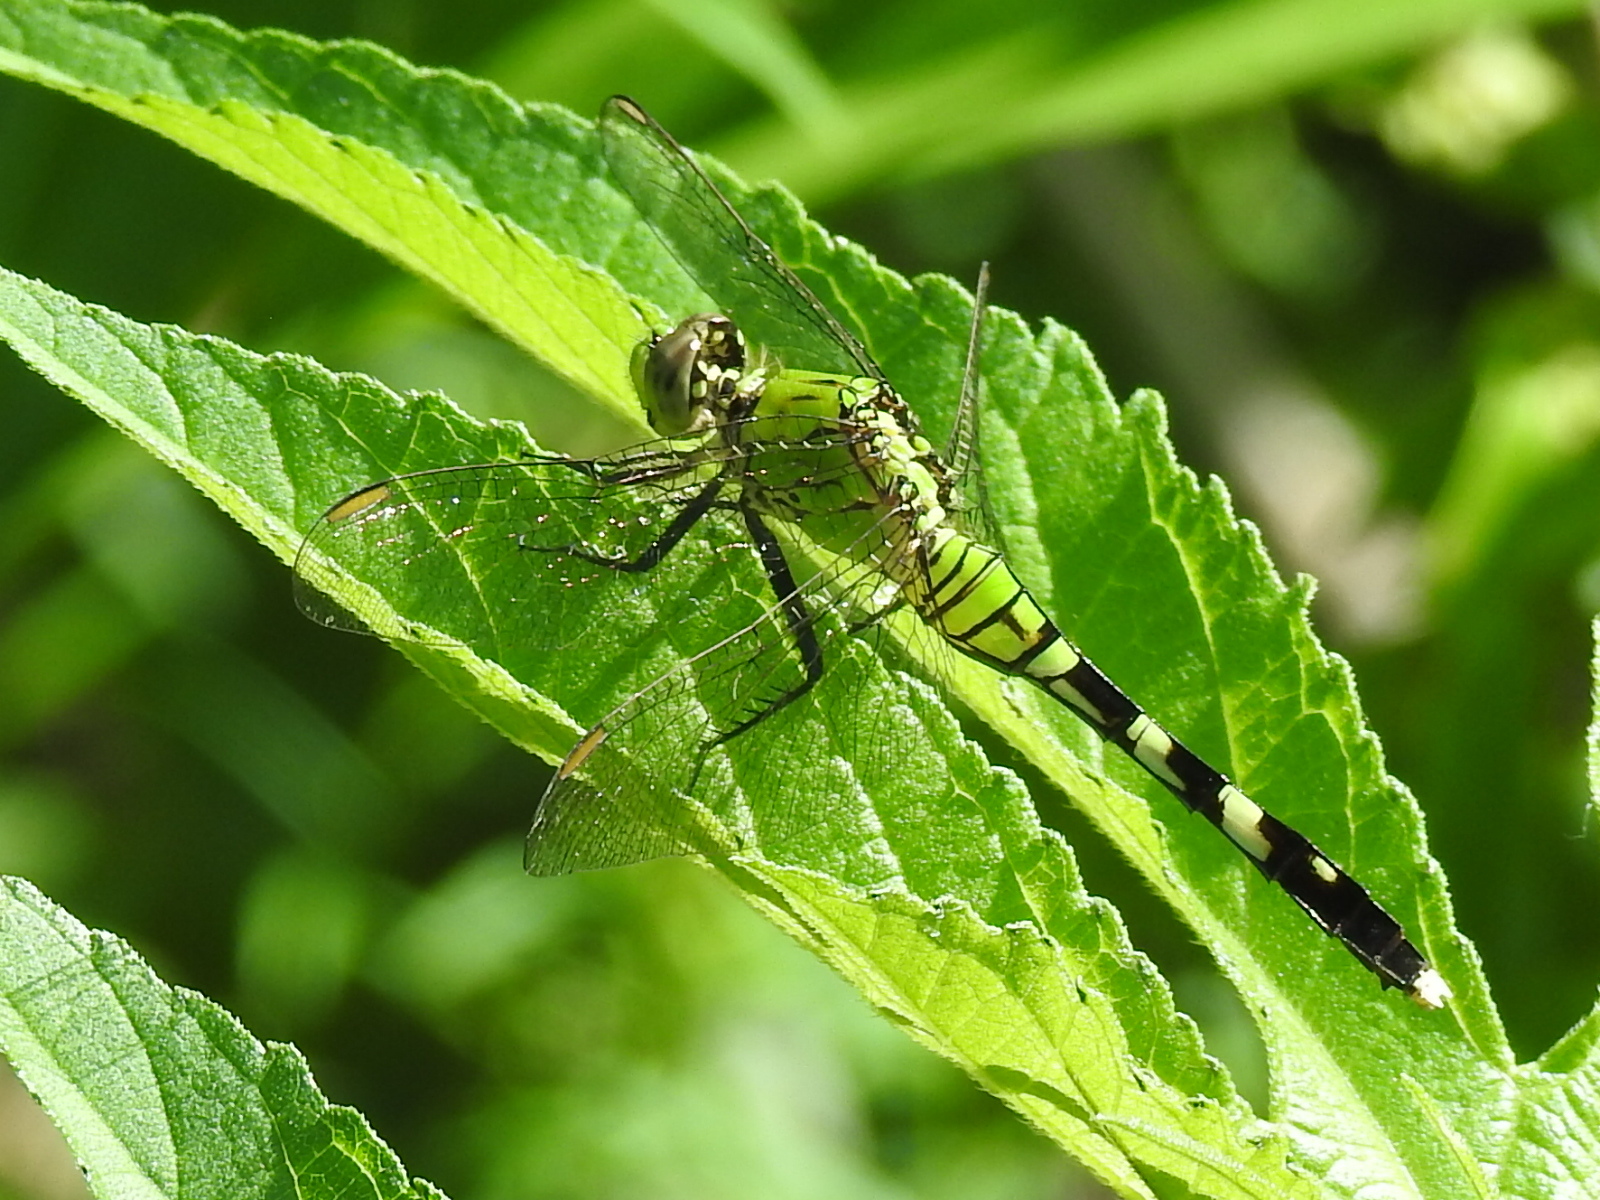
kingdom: Animalia
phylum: Arthropoda
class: Insecta
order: Odonata
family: Libellulidae
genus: Erythemis
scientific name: Erythemis simplicicollis
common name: Eastern pondhawk
